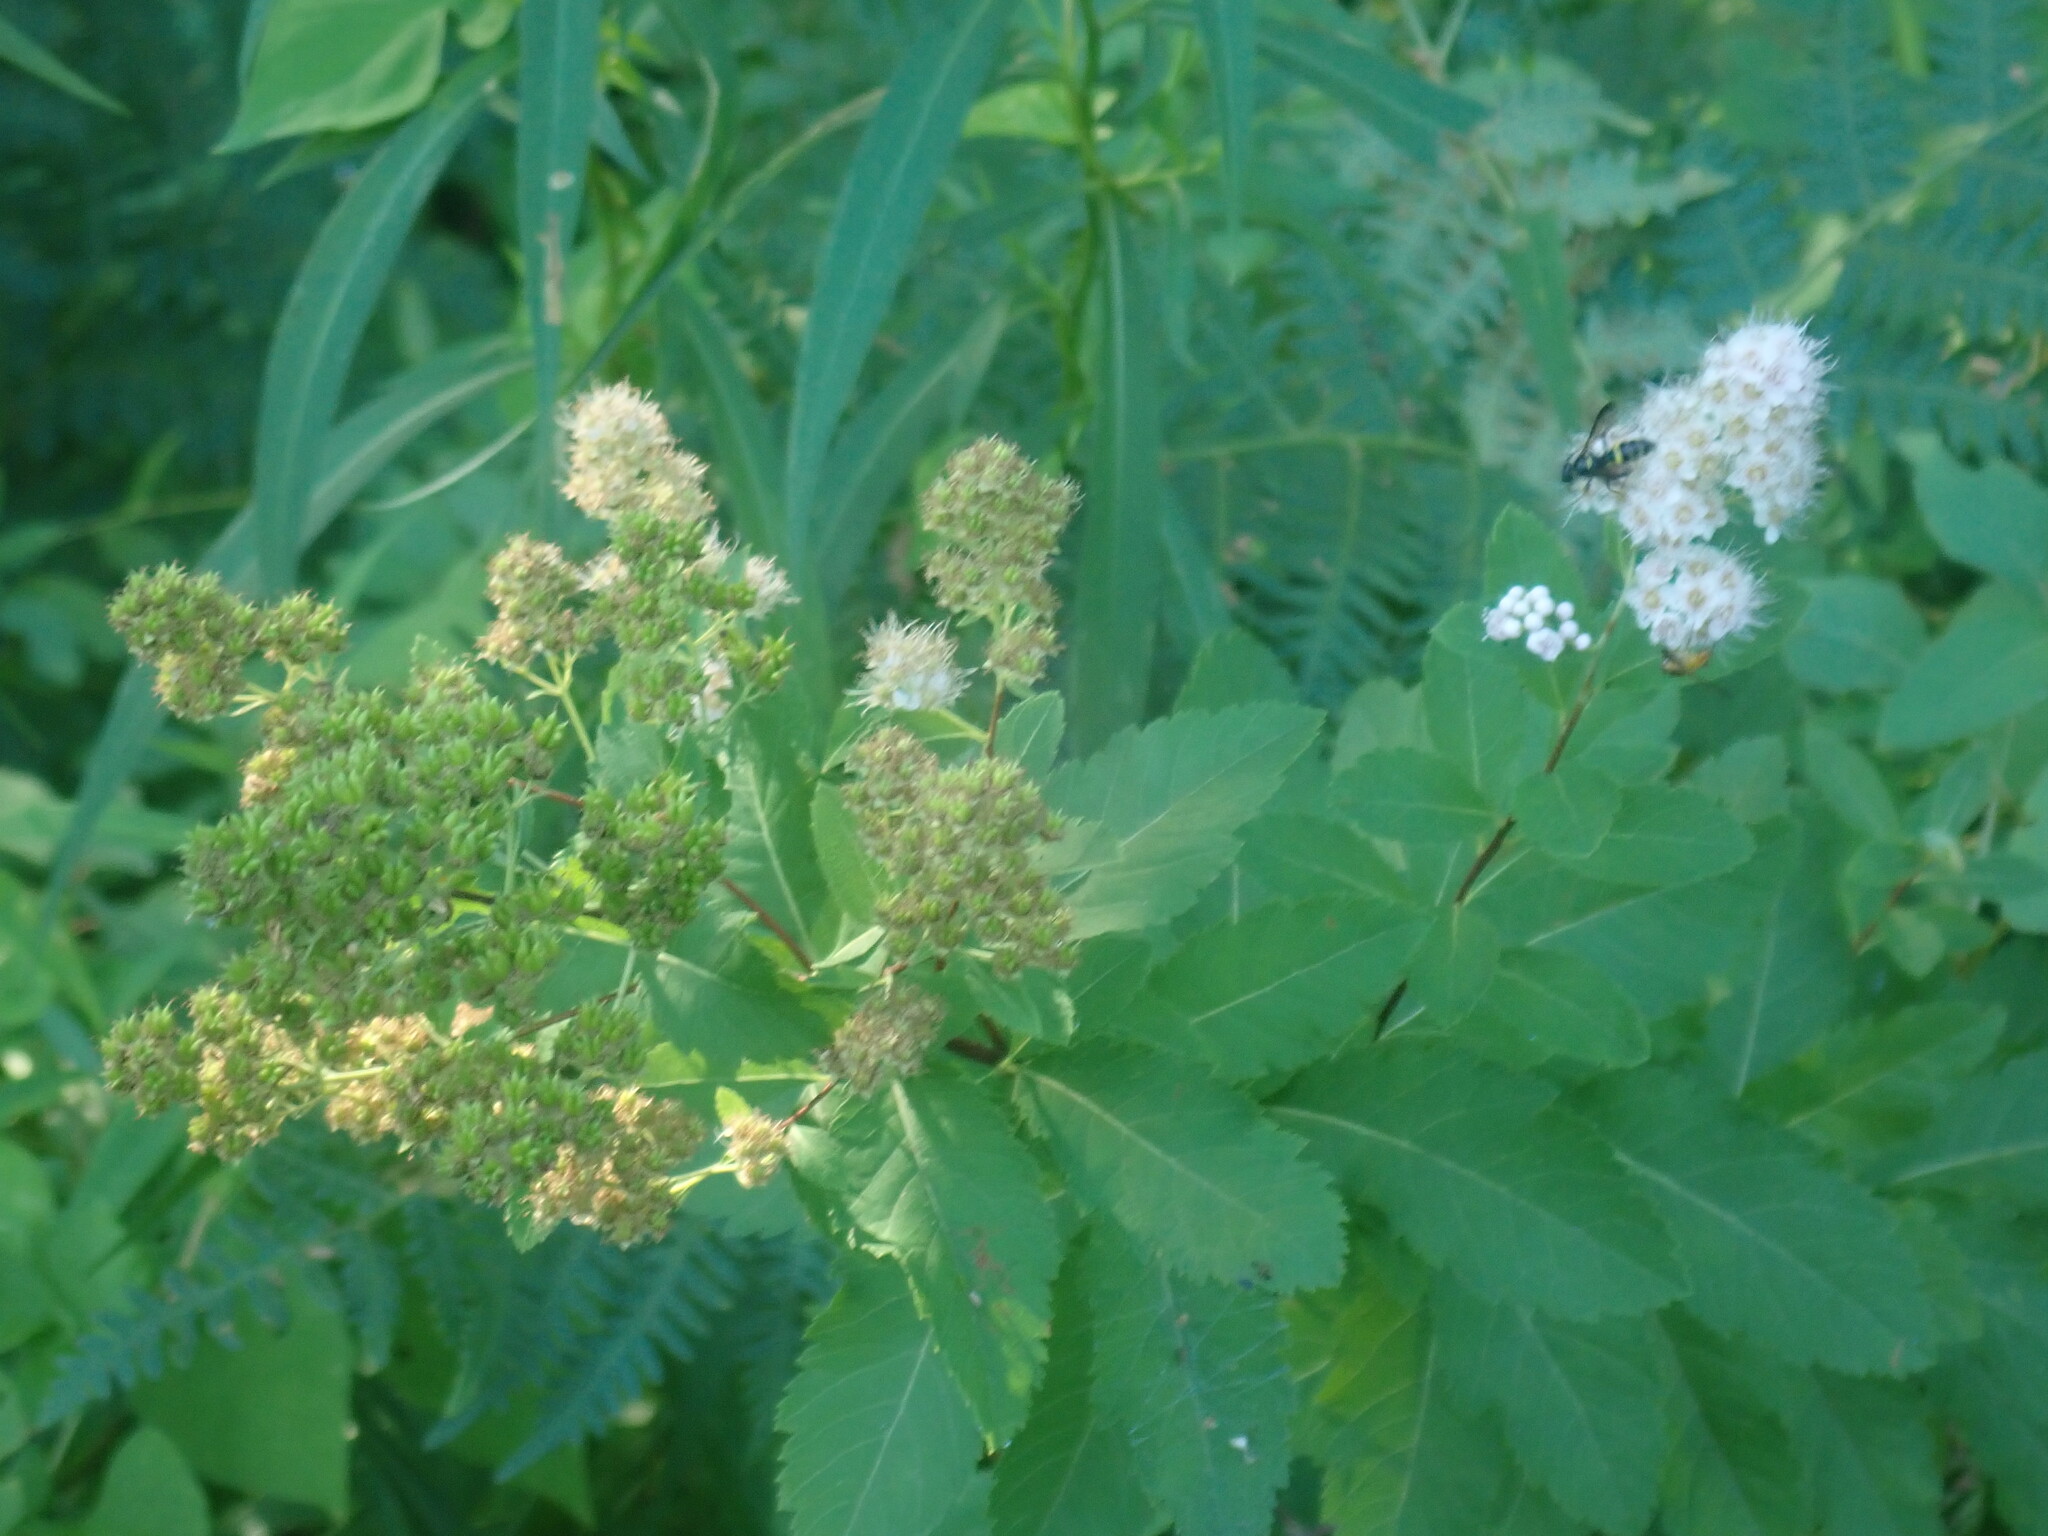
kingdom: Plantae
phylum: Tracheophyta
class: Magnoliopsida
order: Rosales
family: Rosaceae
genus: Spiraea
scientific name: Spiraea alba
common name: Pale bridewort
